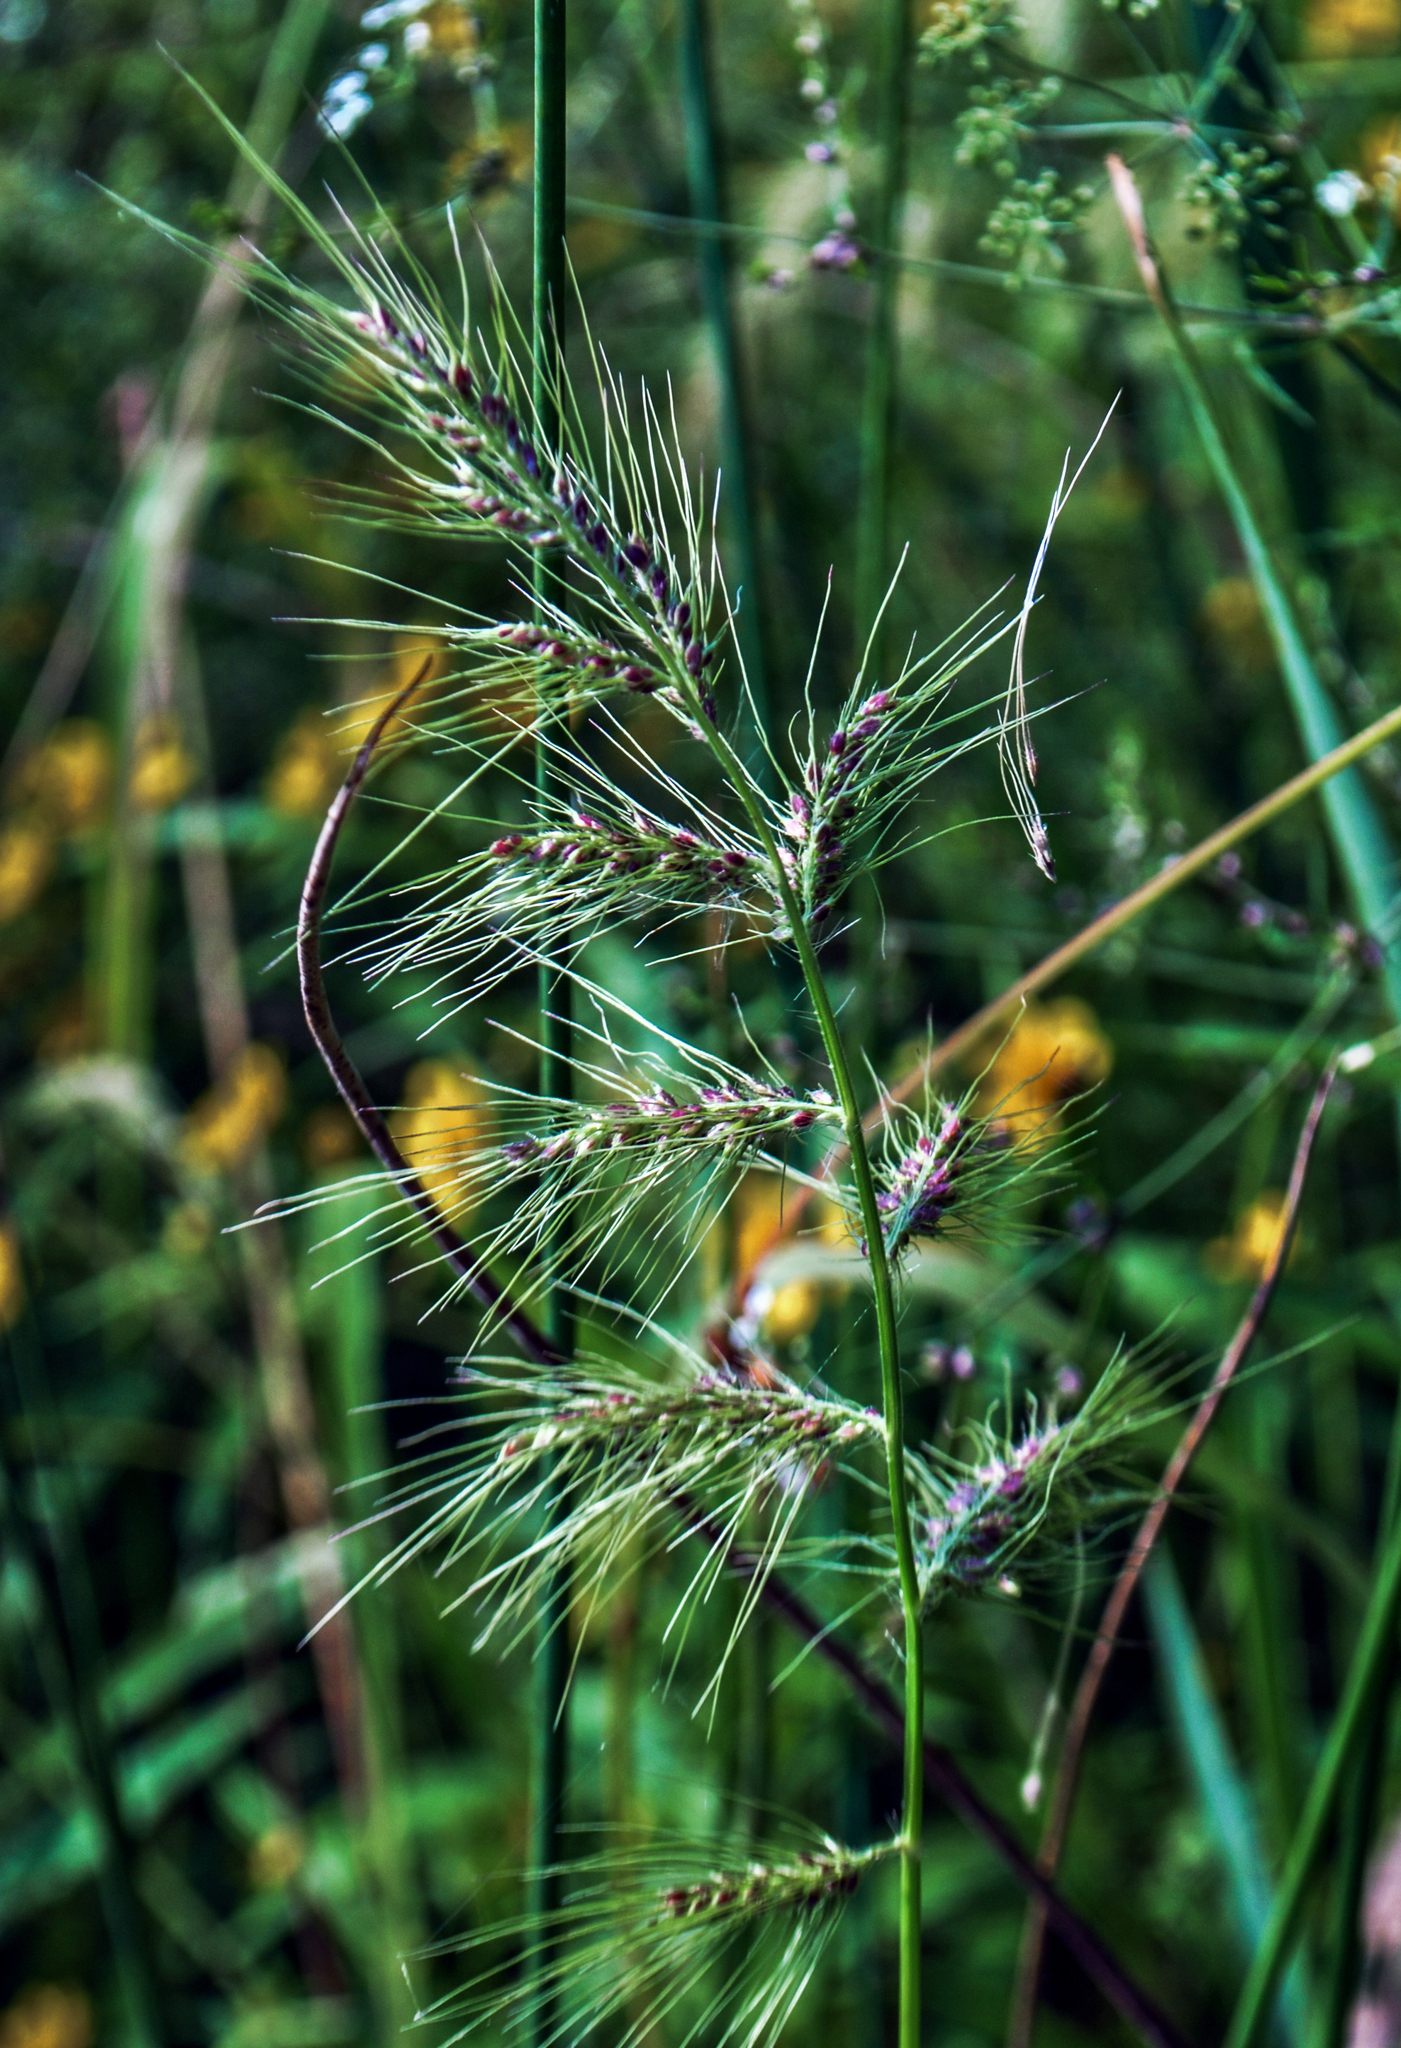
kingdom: Plantae
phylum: Tracheophyta
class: Liliopsida
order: Poales
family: Poaceae
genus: Echinochloa
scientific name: Echinochloa walteri
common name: Coast barnyard grass
